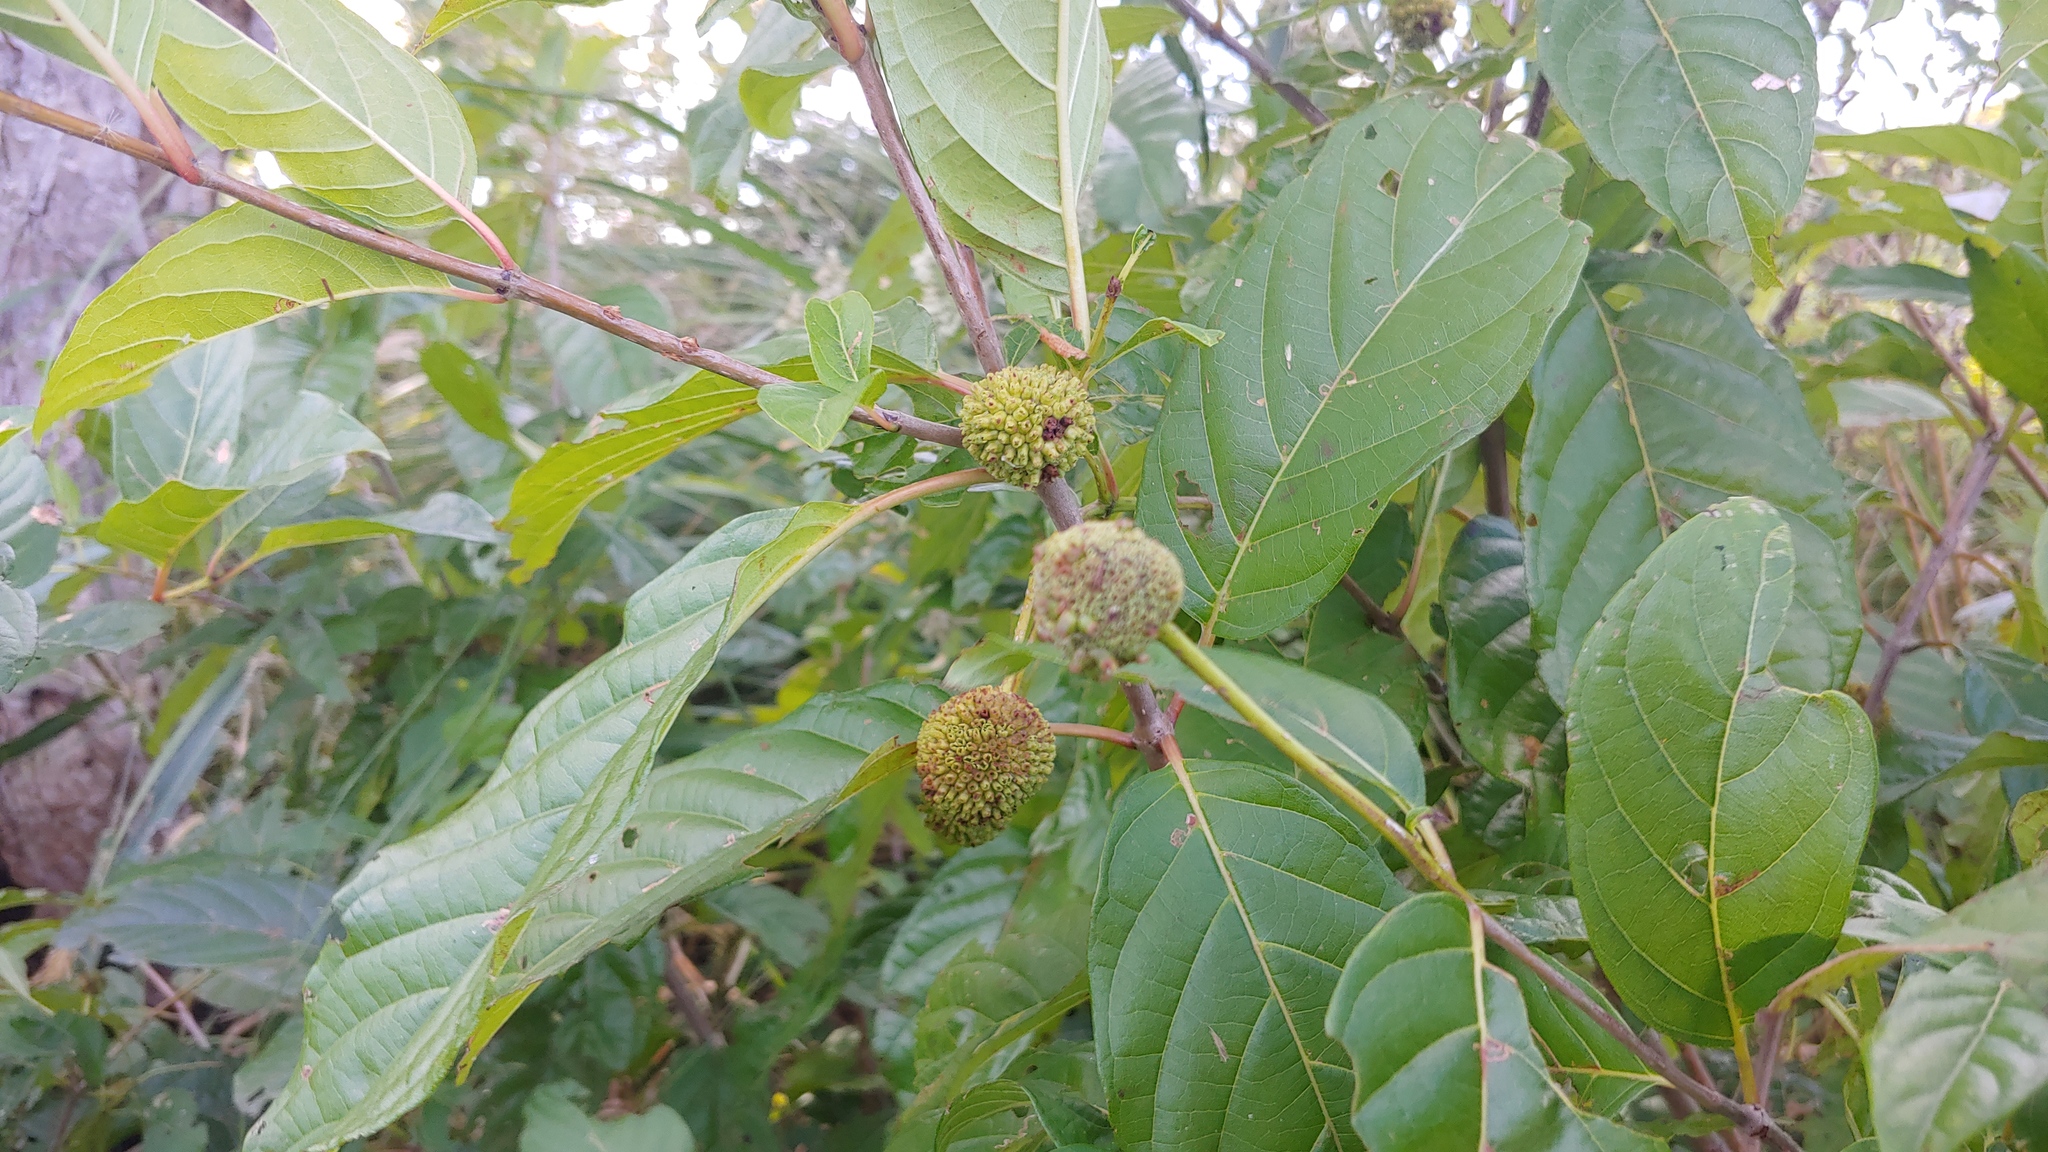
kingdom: Plantae
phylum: Tracheophyta
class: Magnoliopsida
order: Gentianales
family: Rubiaceae
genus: Cephalanthus
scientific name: Cephalanthus occidentalis
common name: Button-willow
